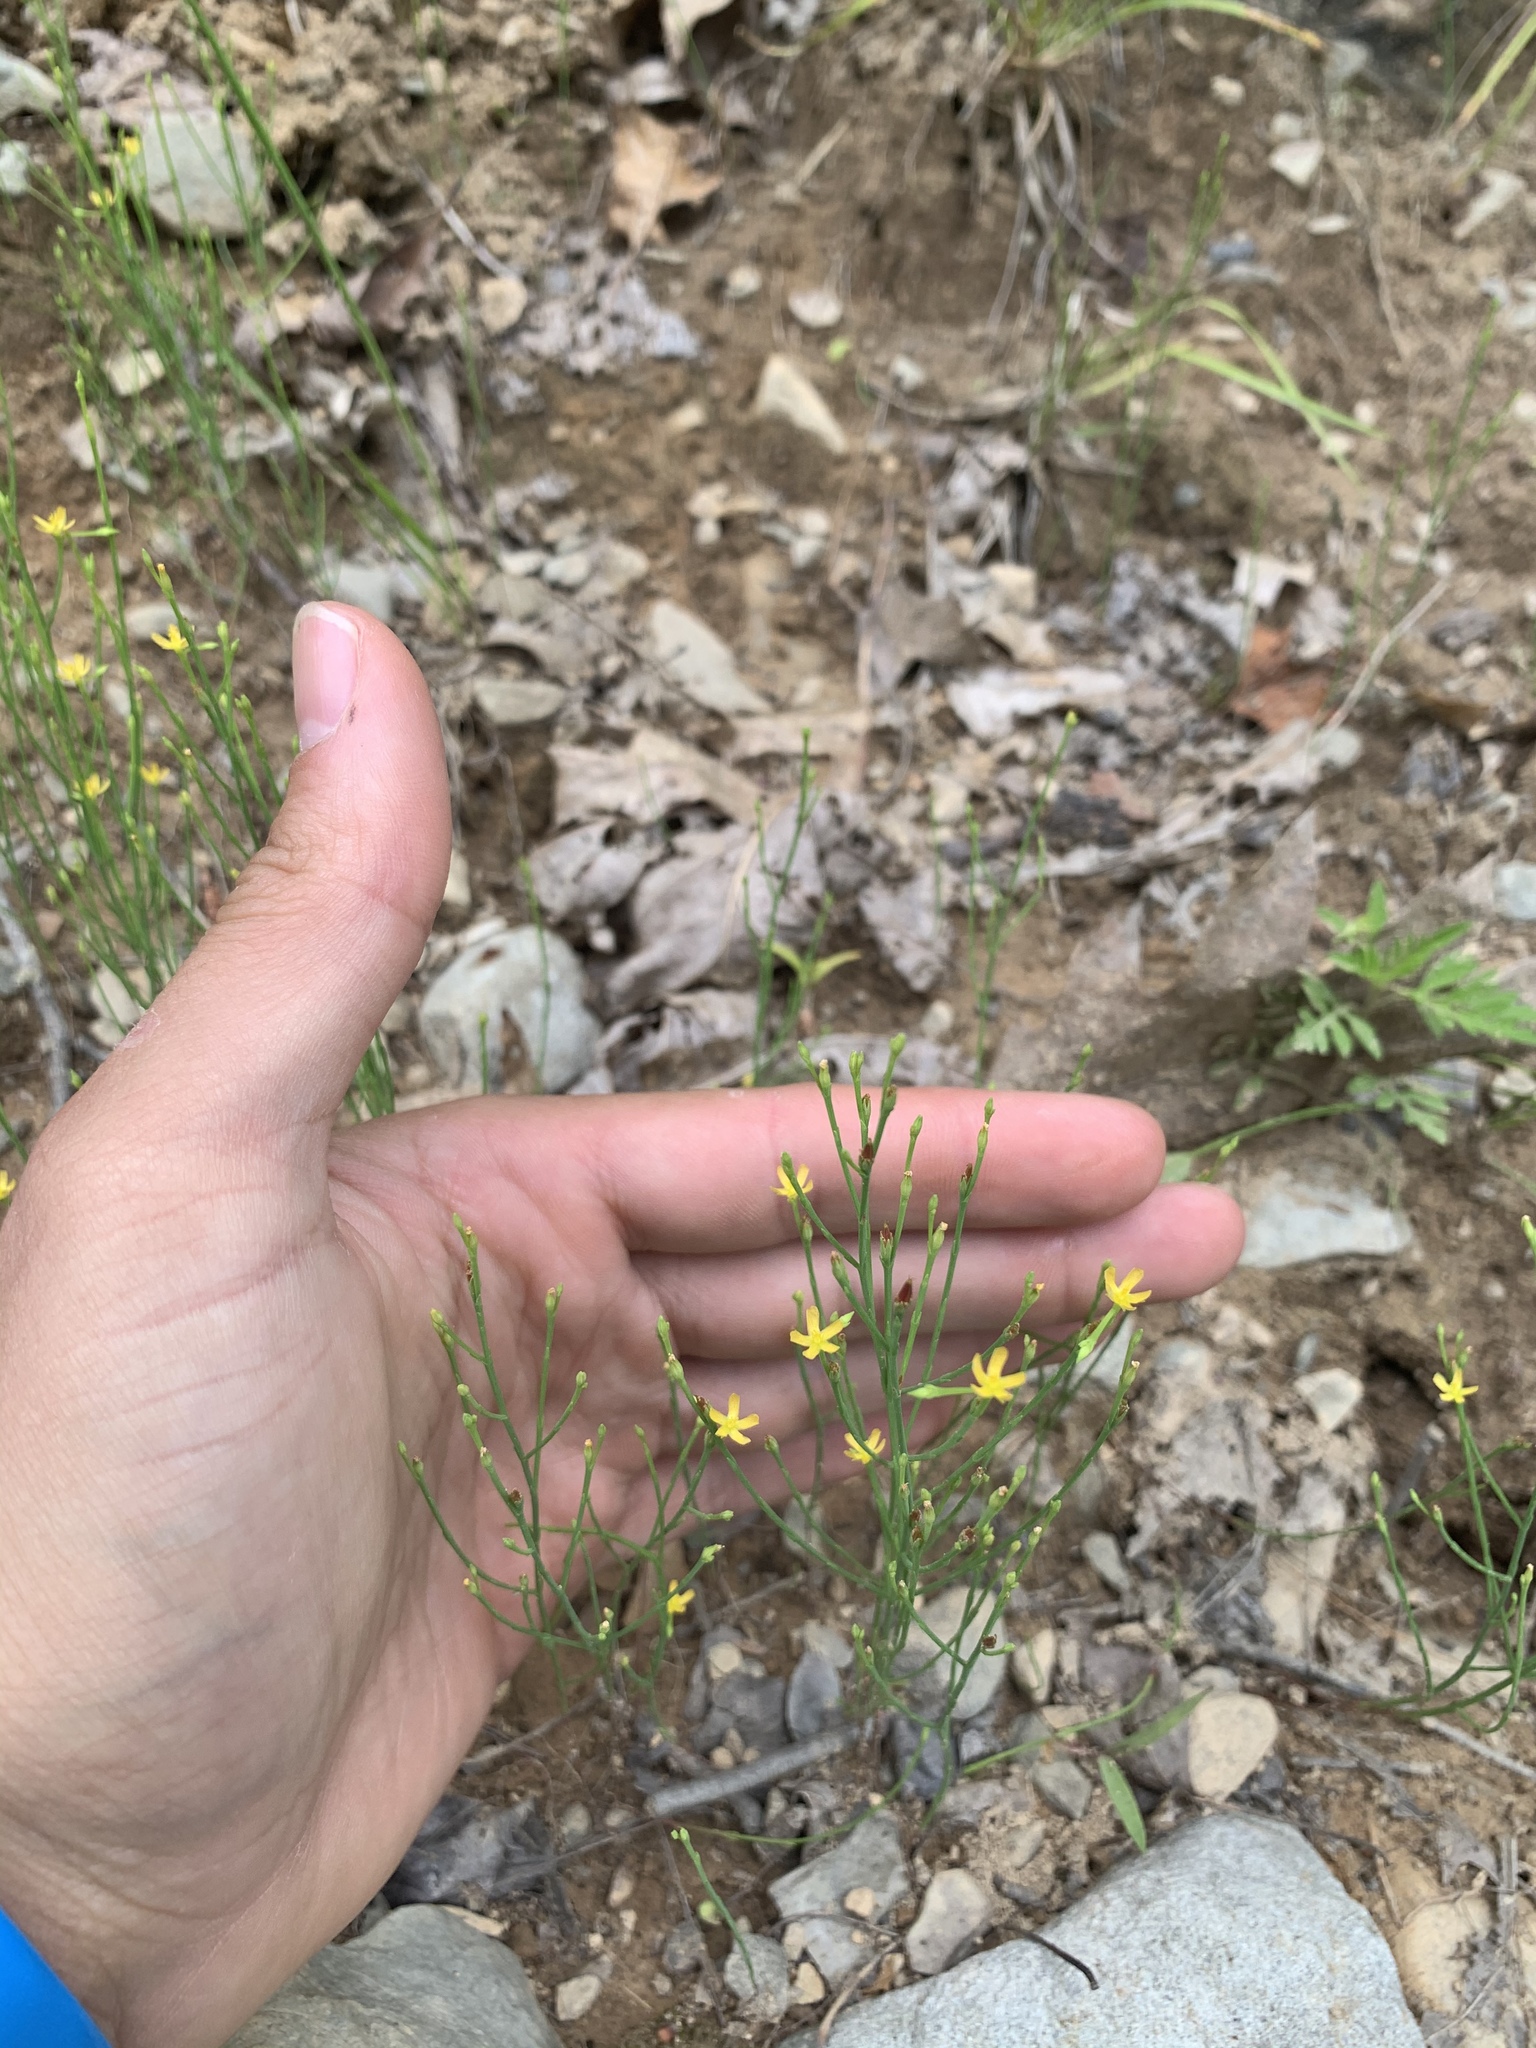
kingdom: Plantae
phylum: Tracheophyta
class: Magnoliopsida
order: Malpighiales
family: Hypericaceae
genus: Hypericum
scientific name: Hypericum gentianoides
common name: Gentian-leaved st. john's-wort
